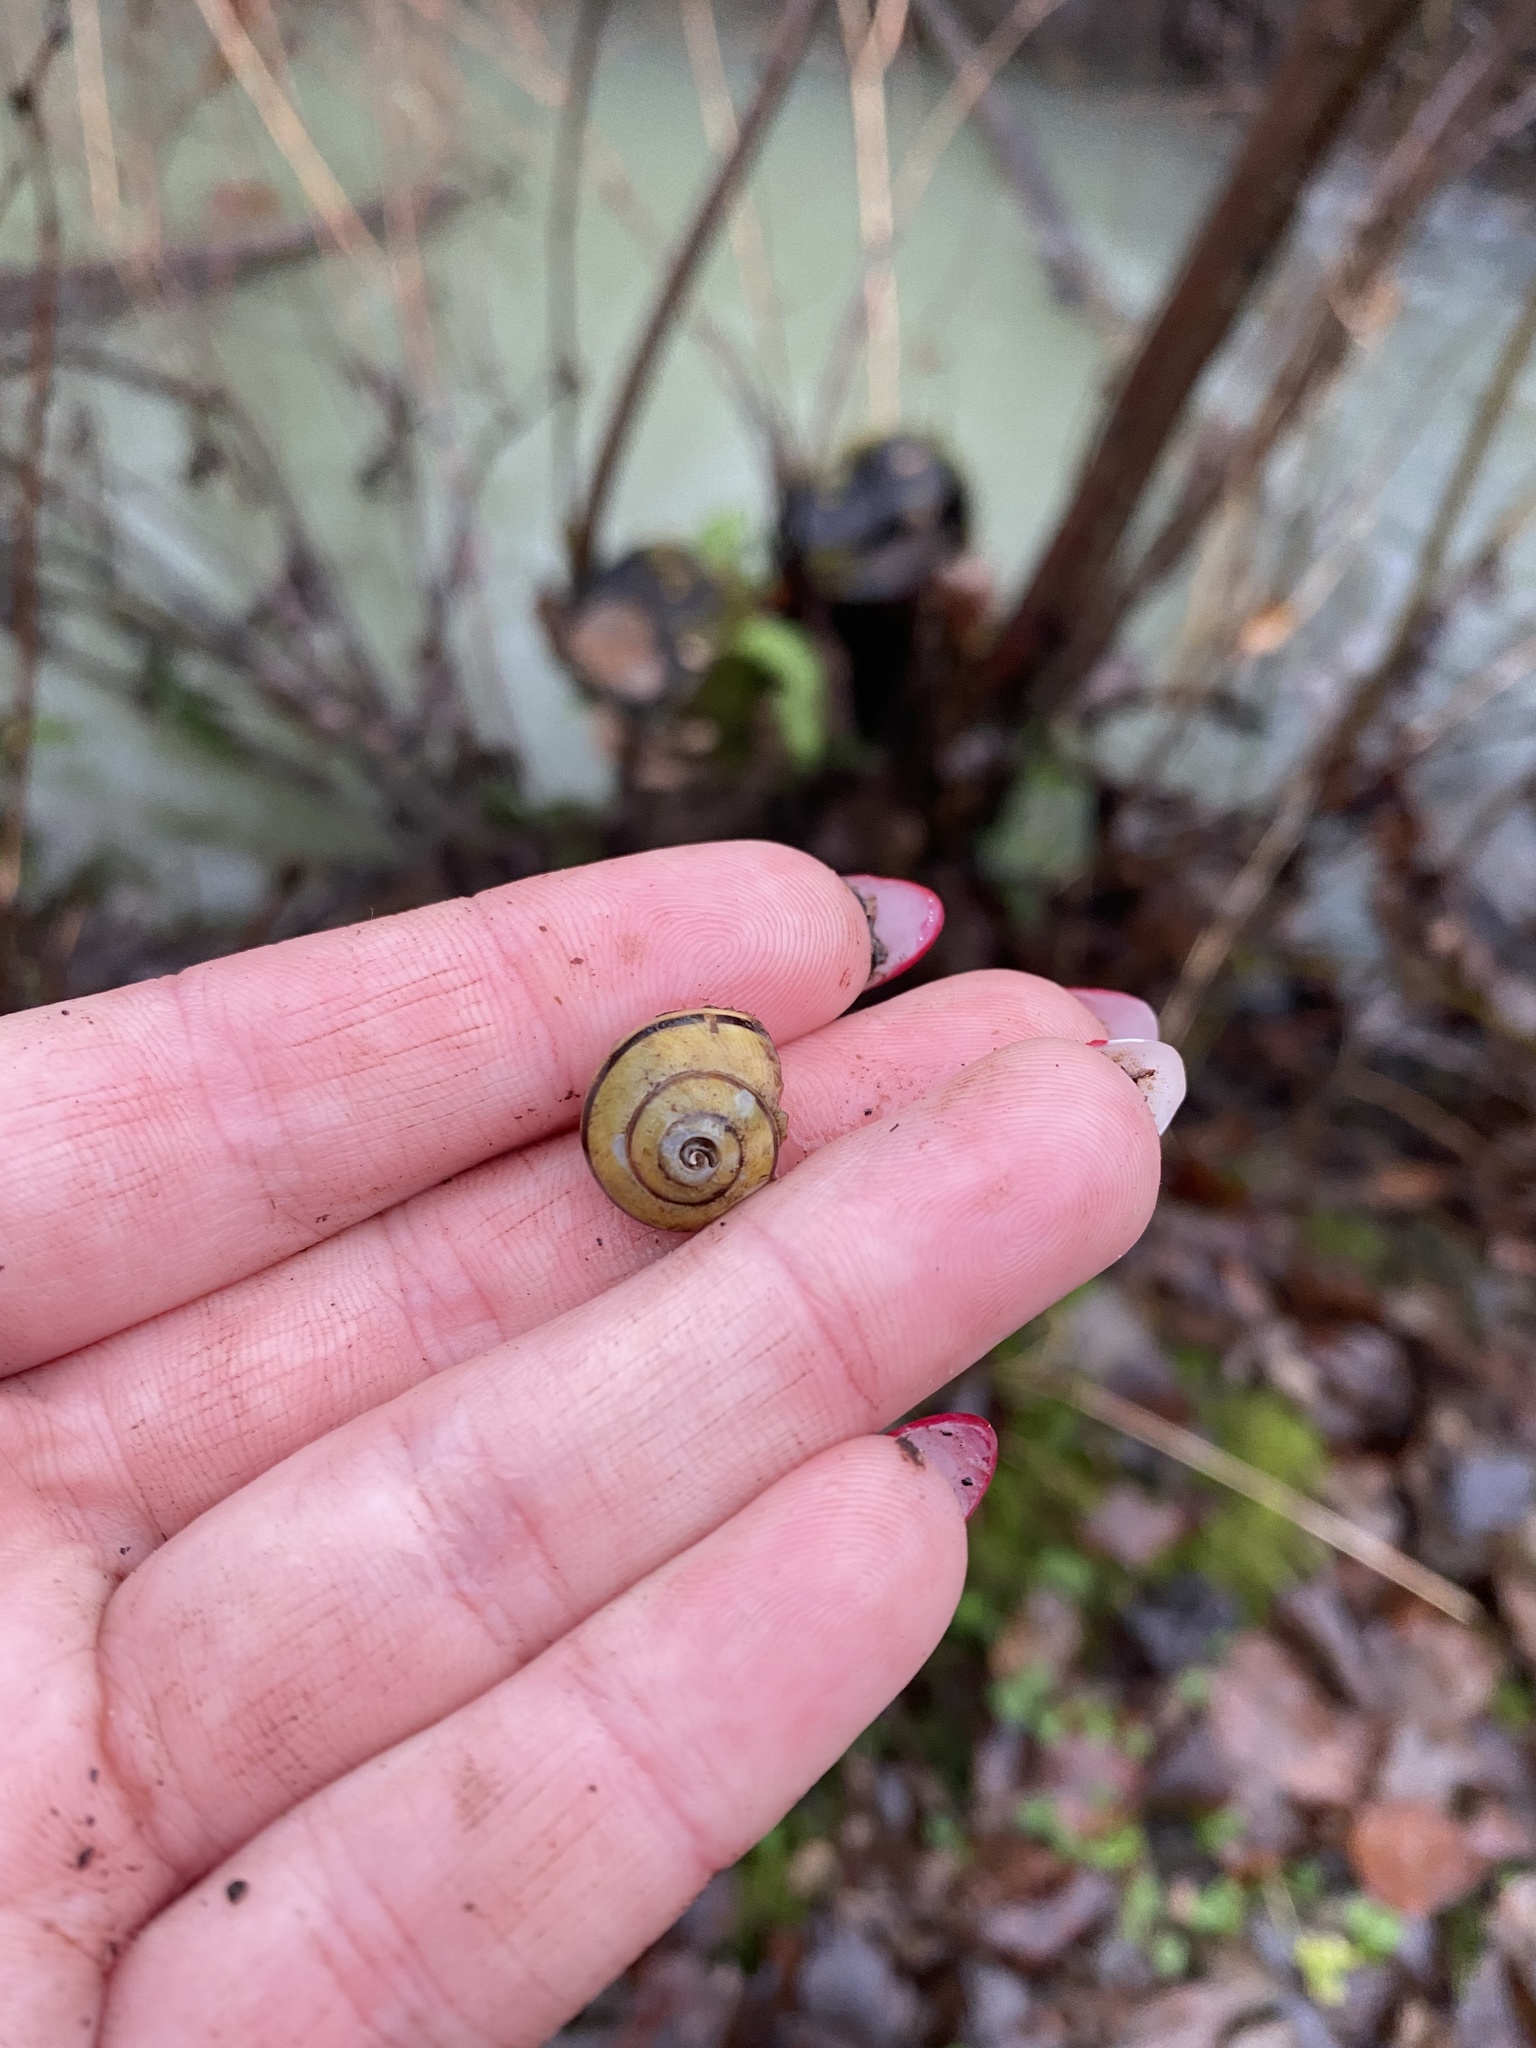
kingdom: Animalia
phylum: Mollusca
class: Gastropoda
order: Stylommatophora
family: Helicidae
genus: Cepaea
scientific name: Cepaea nemoralis
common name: Grovesnail
